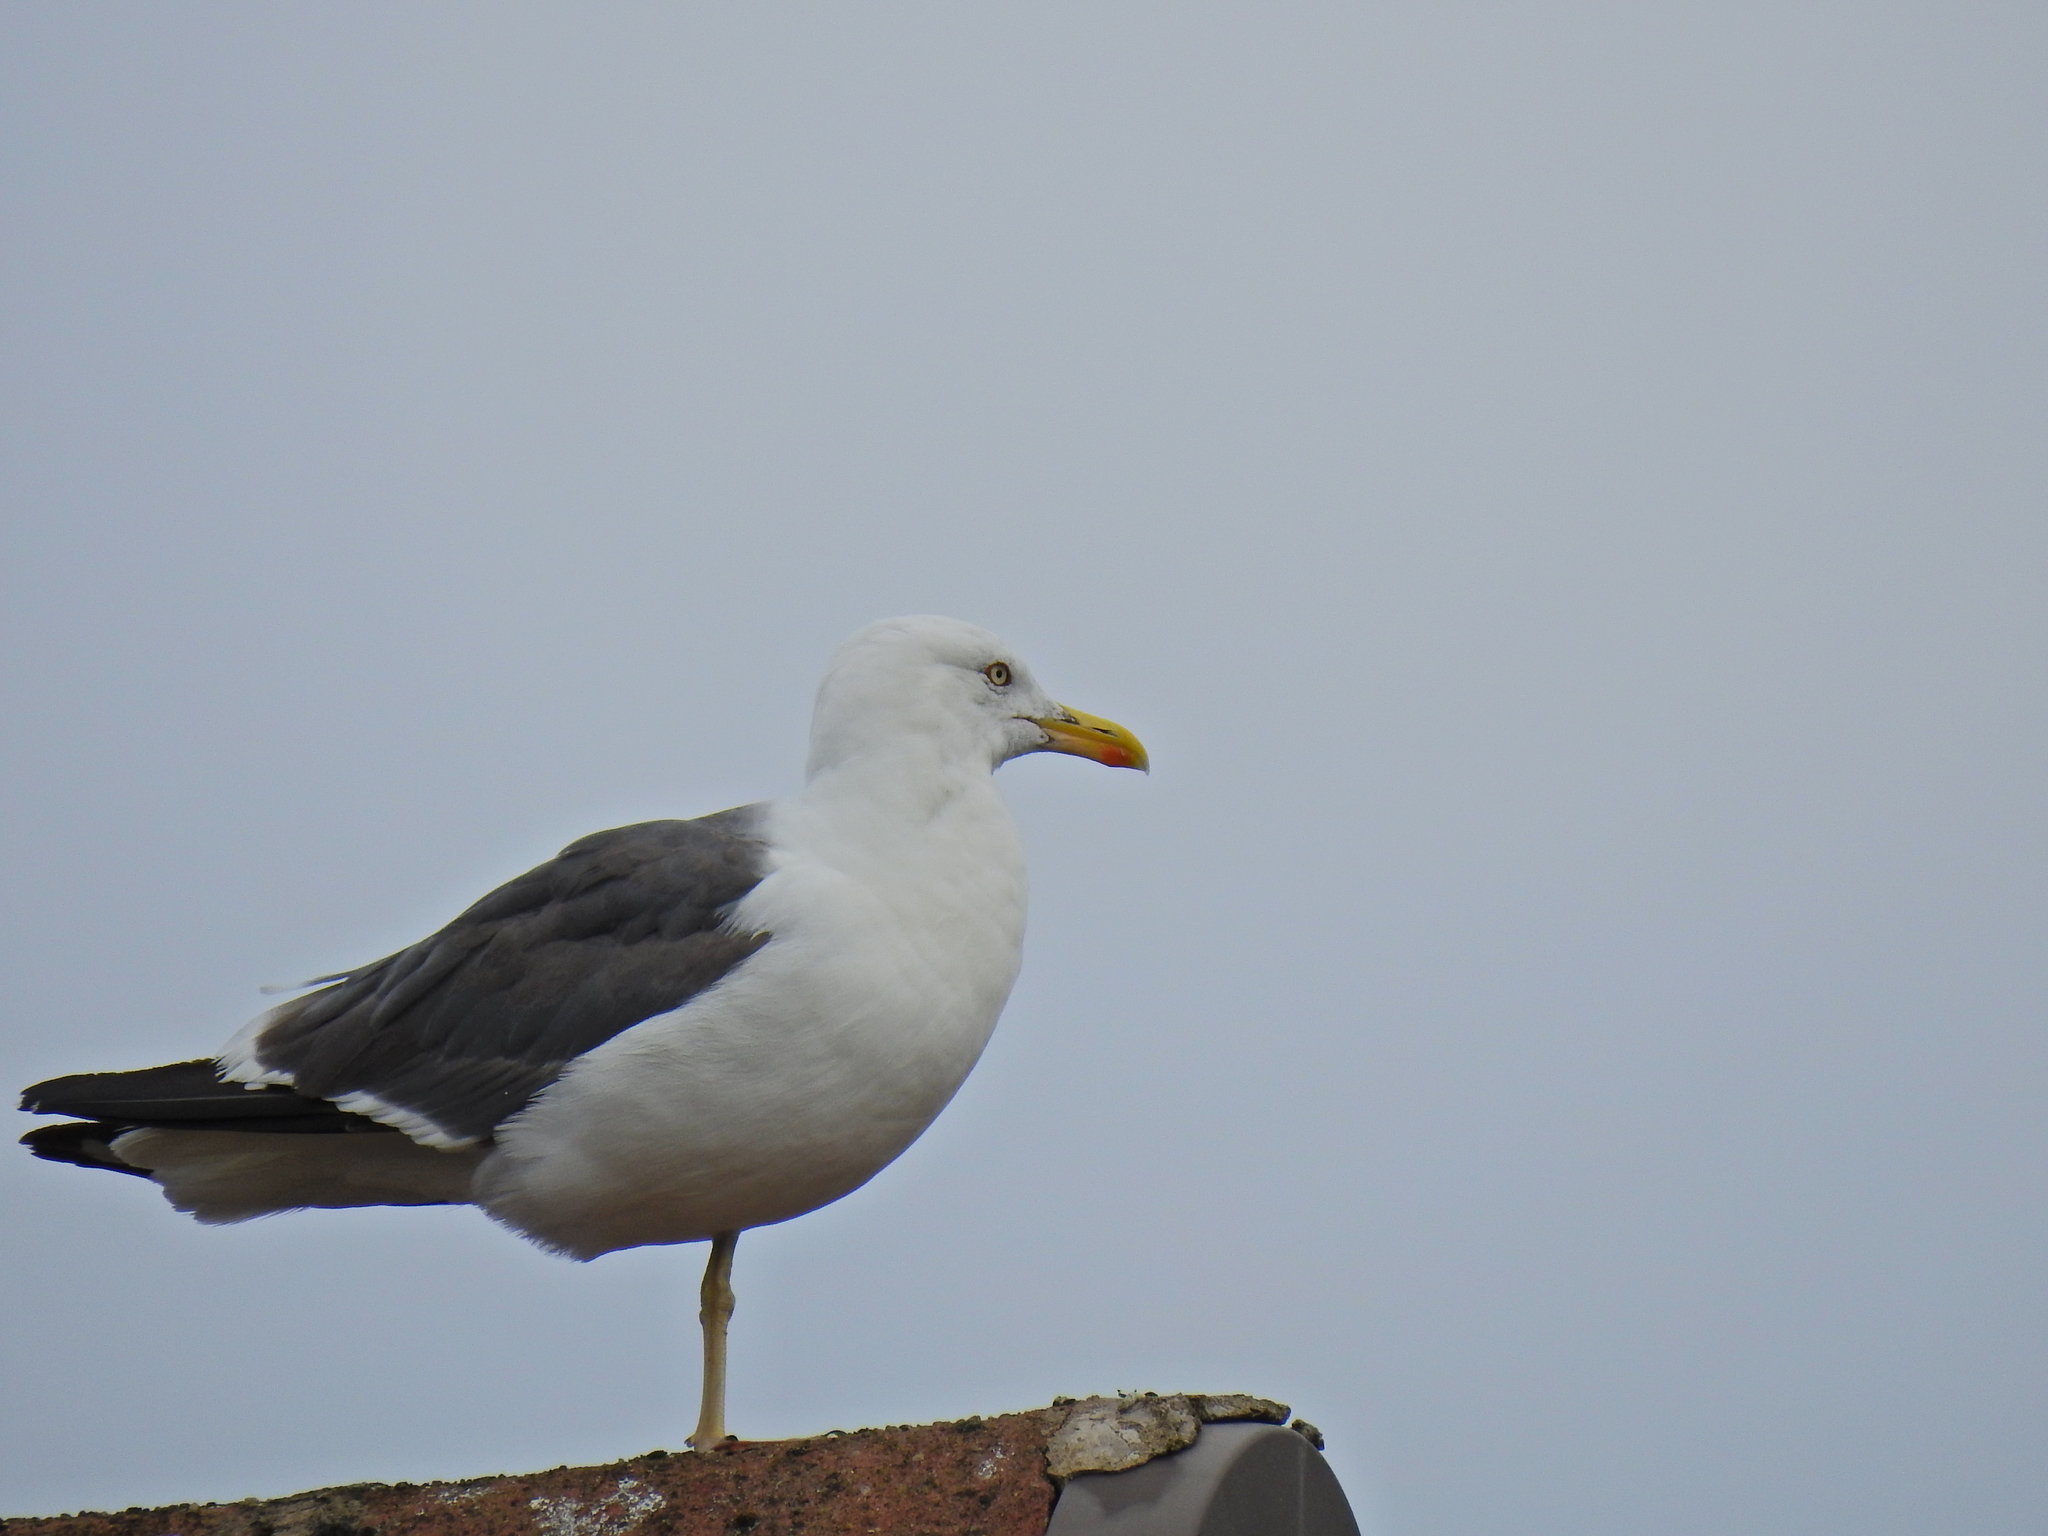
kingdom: Animalia
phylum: Chordata
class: Aves
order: Charadriiformes
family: Laridae
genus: Larus
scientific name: Larus fuscus
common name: Lesser black-backed gull
